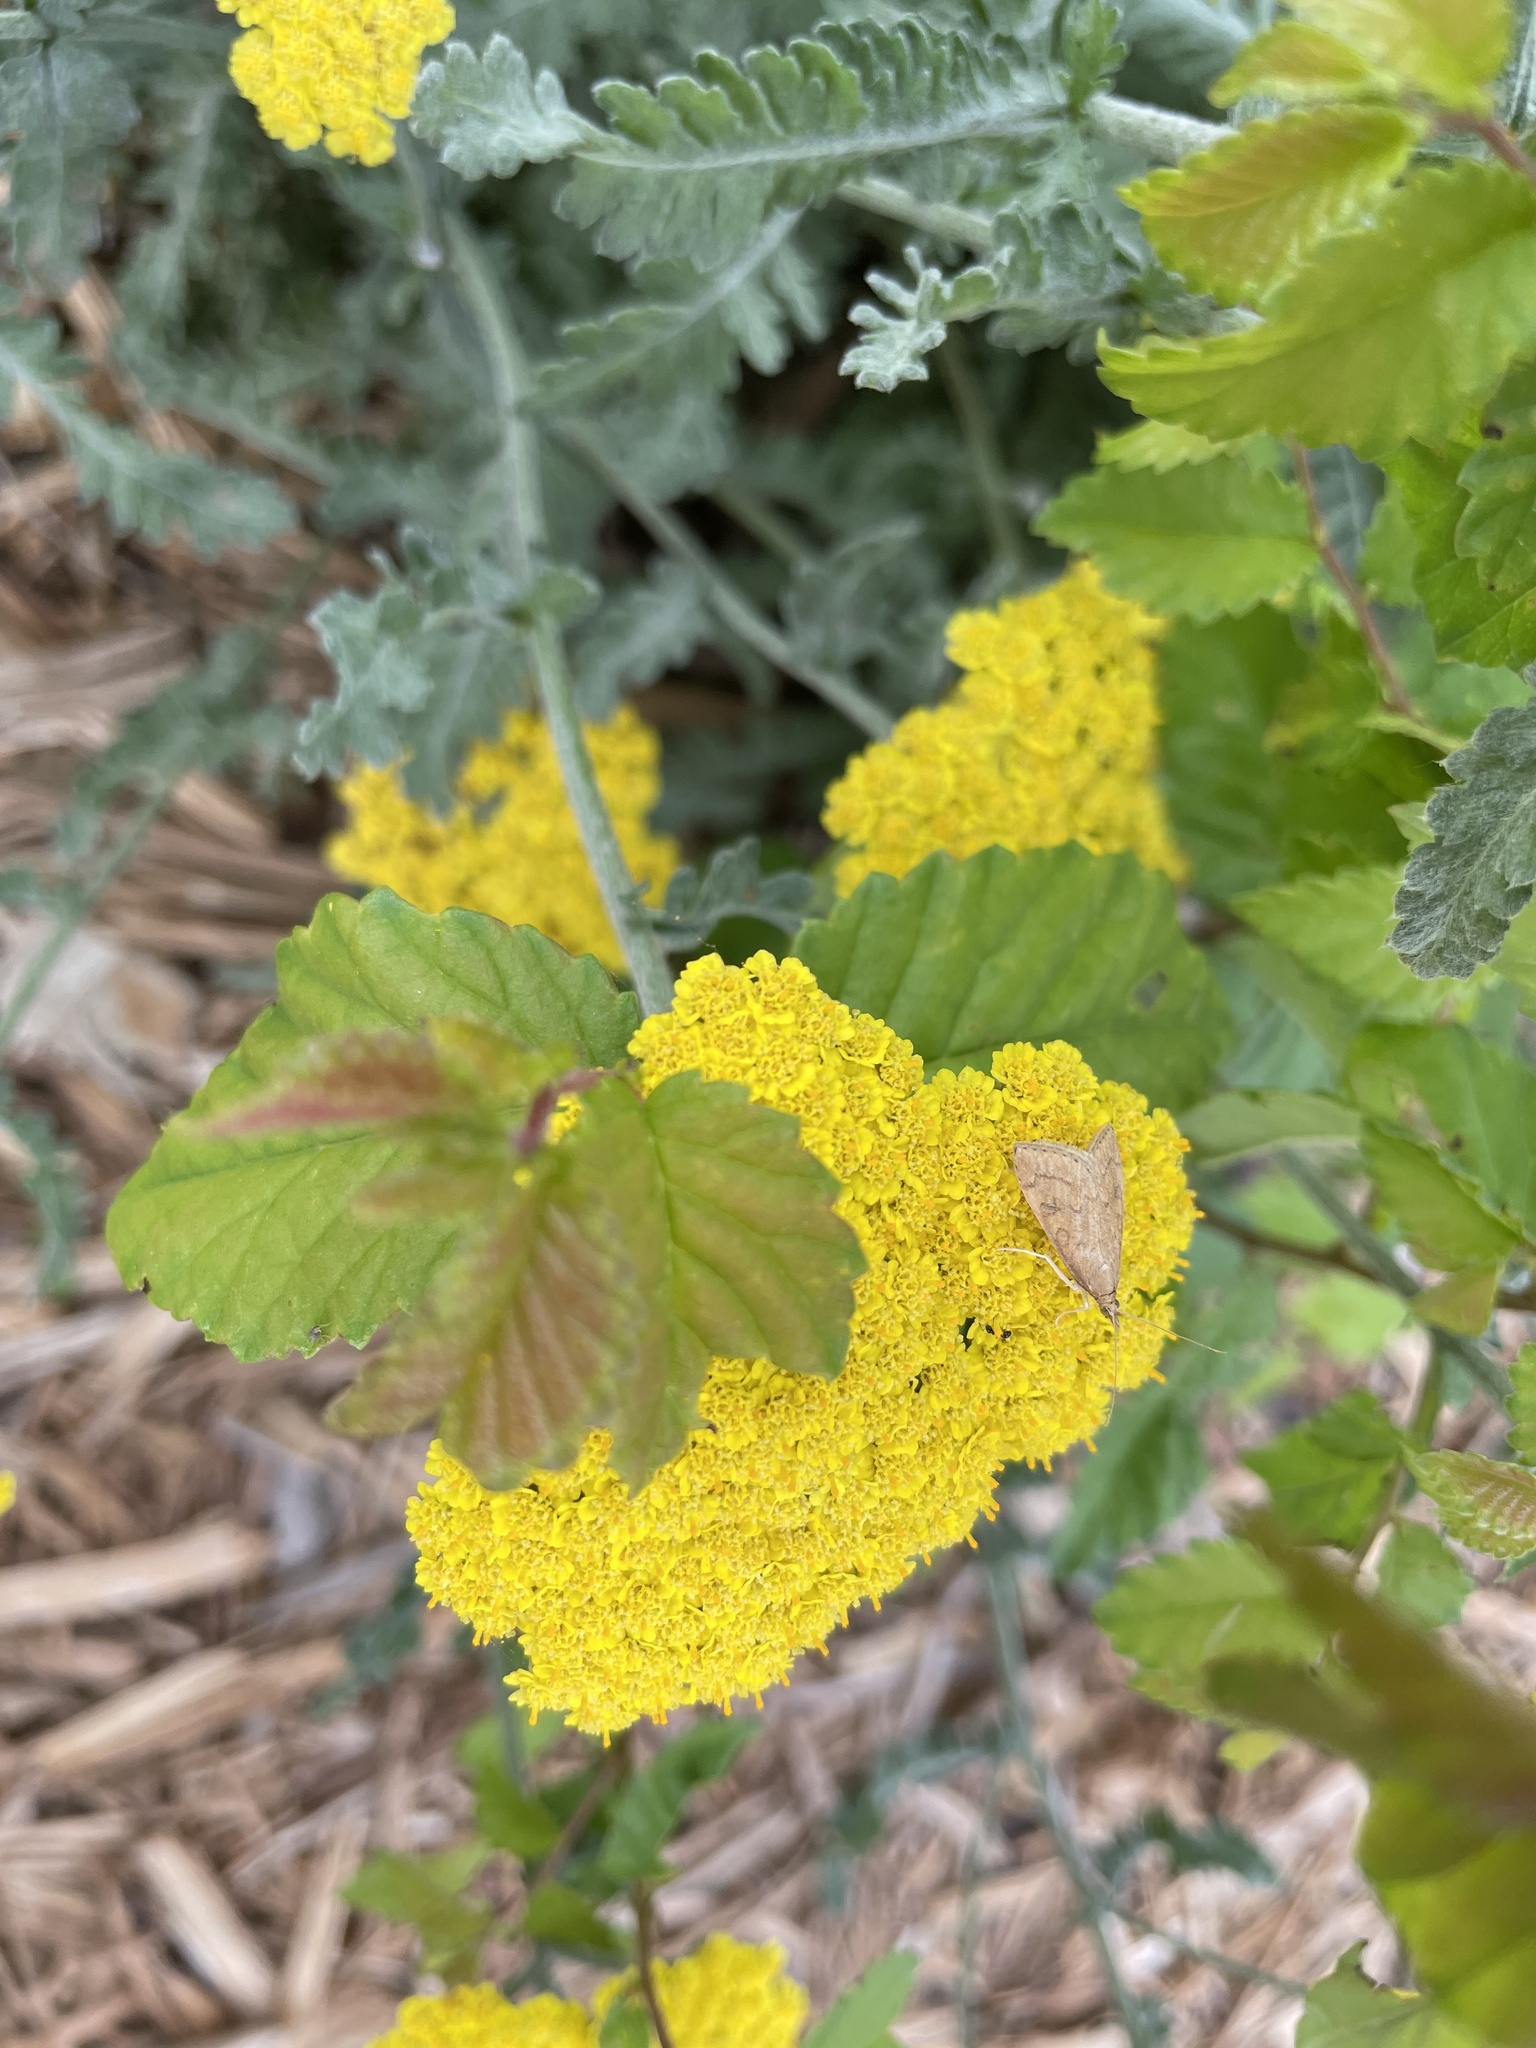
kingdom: Animalia
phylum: Arthropoda
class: Insecta
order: Lepidoptera
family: Crambidae
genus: Udea
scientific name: Udea rubigalis
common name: Celery leaftier moth
